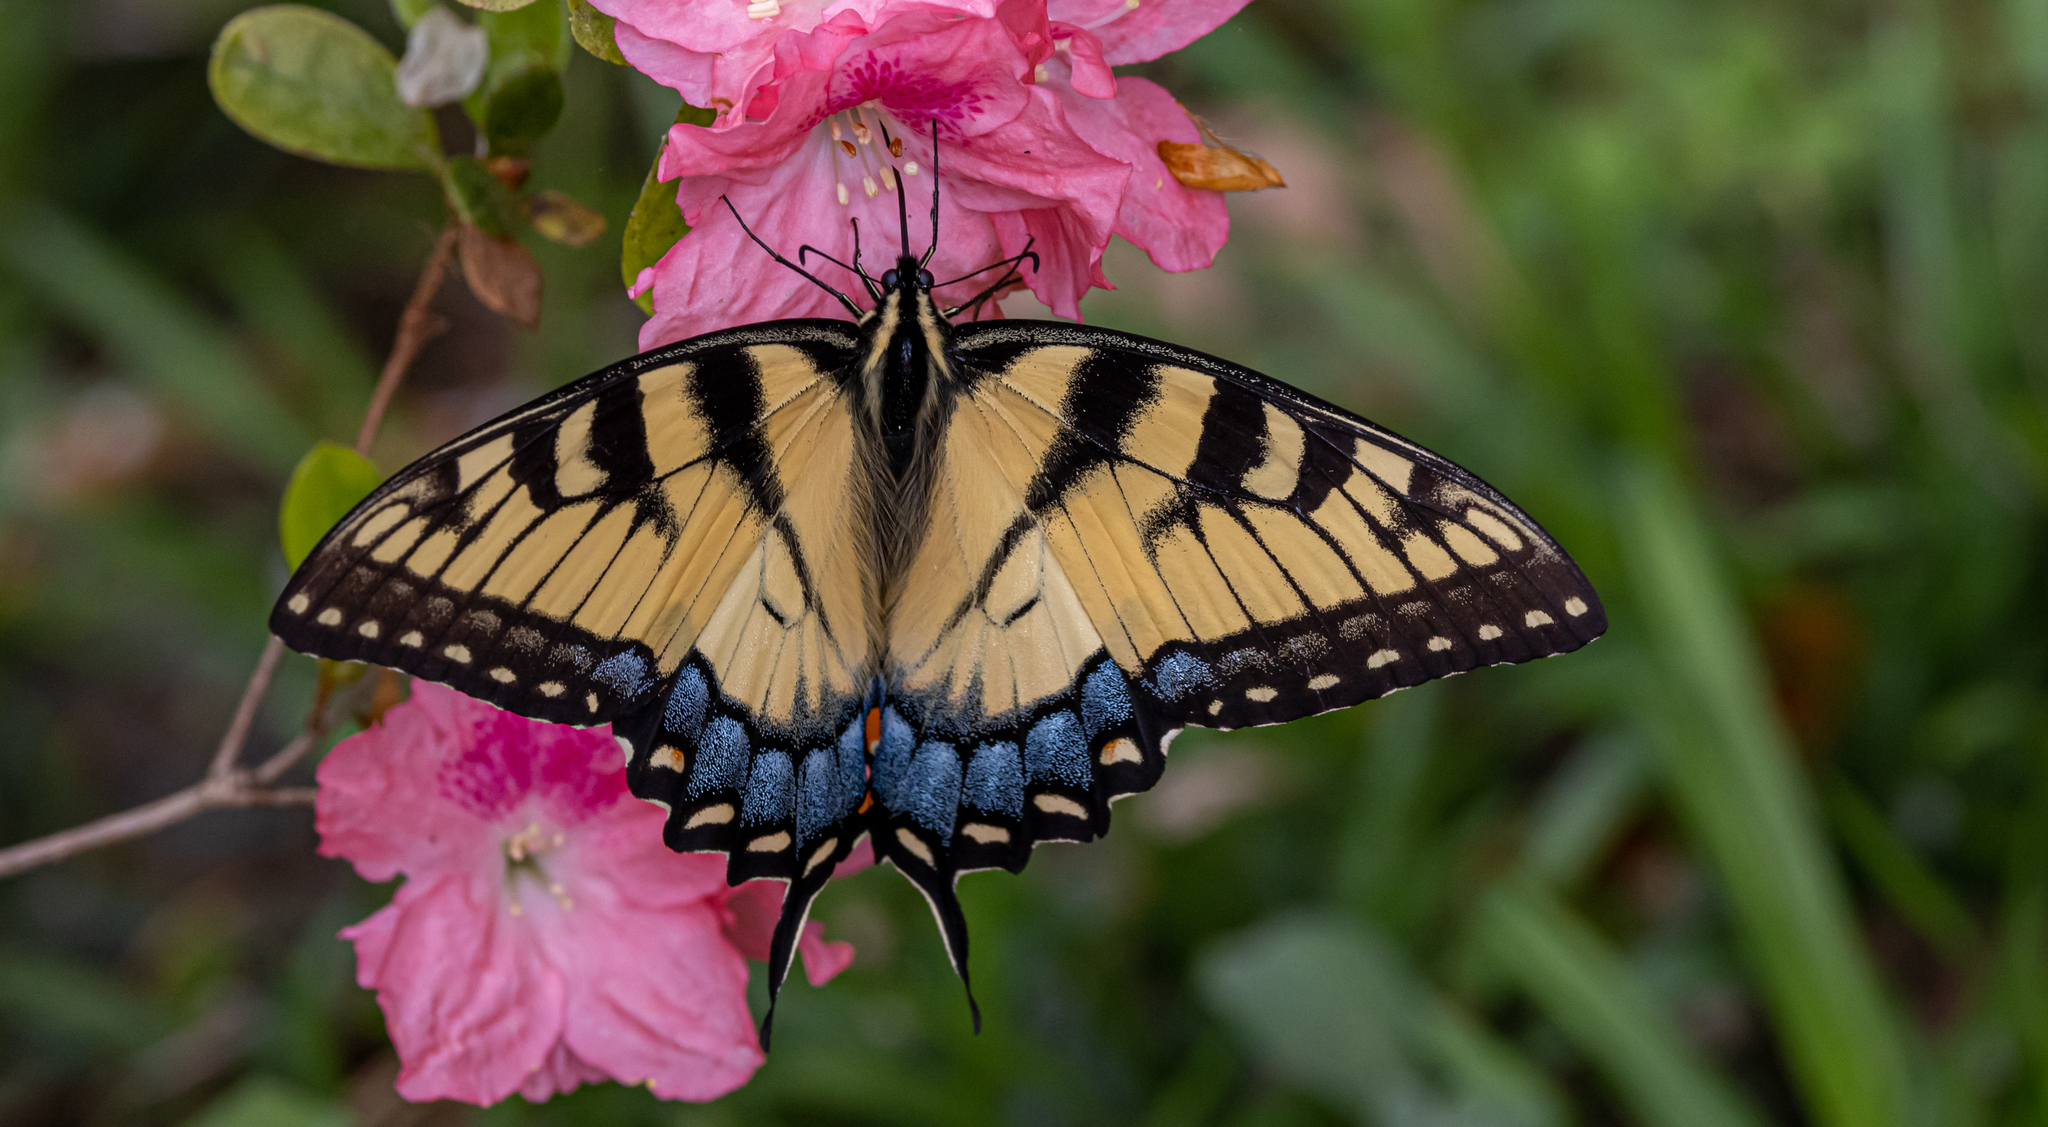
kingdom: Animalia
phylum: Arthropoda
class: Insecta
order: Lepidoptera
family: Papilionidae
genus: Papilio
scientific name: Papilio glaucus
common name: Tiger swallowtail
